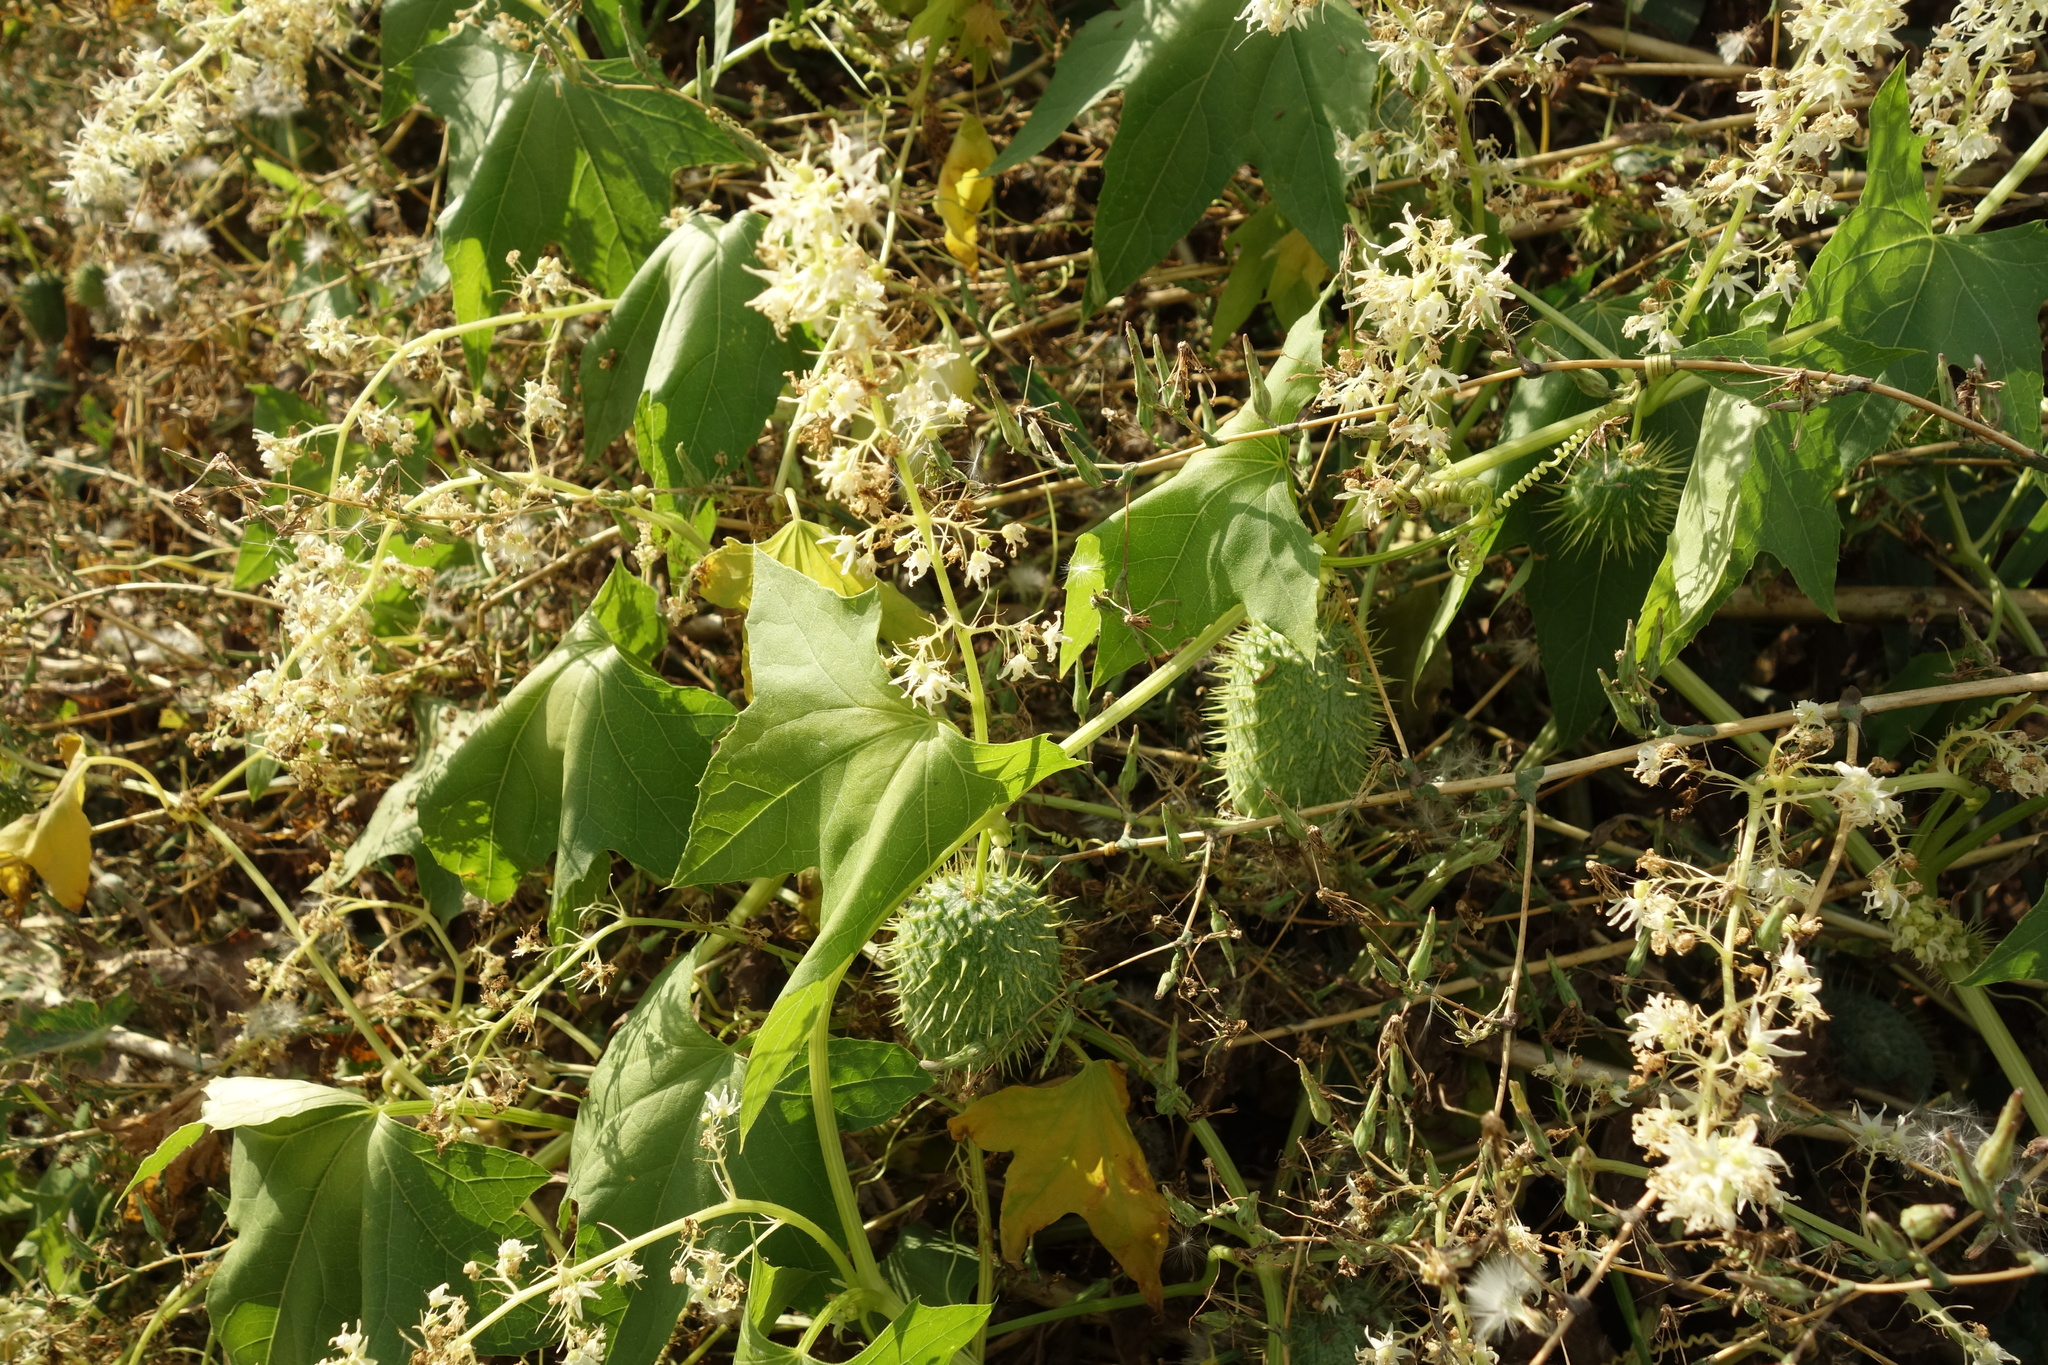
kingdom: Plantae
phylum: Tracheophyta
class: Magnoliopsida
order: Cucurbitales
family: Cucurbitaceae
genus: Echinocystis
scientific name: Echinocystis lobata
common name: Wild cucumber
